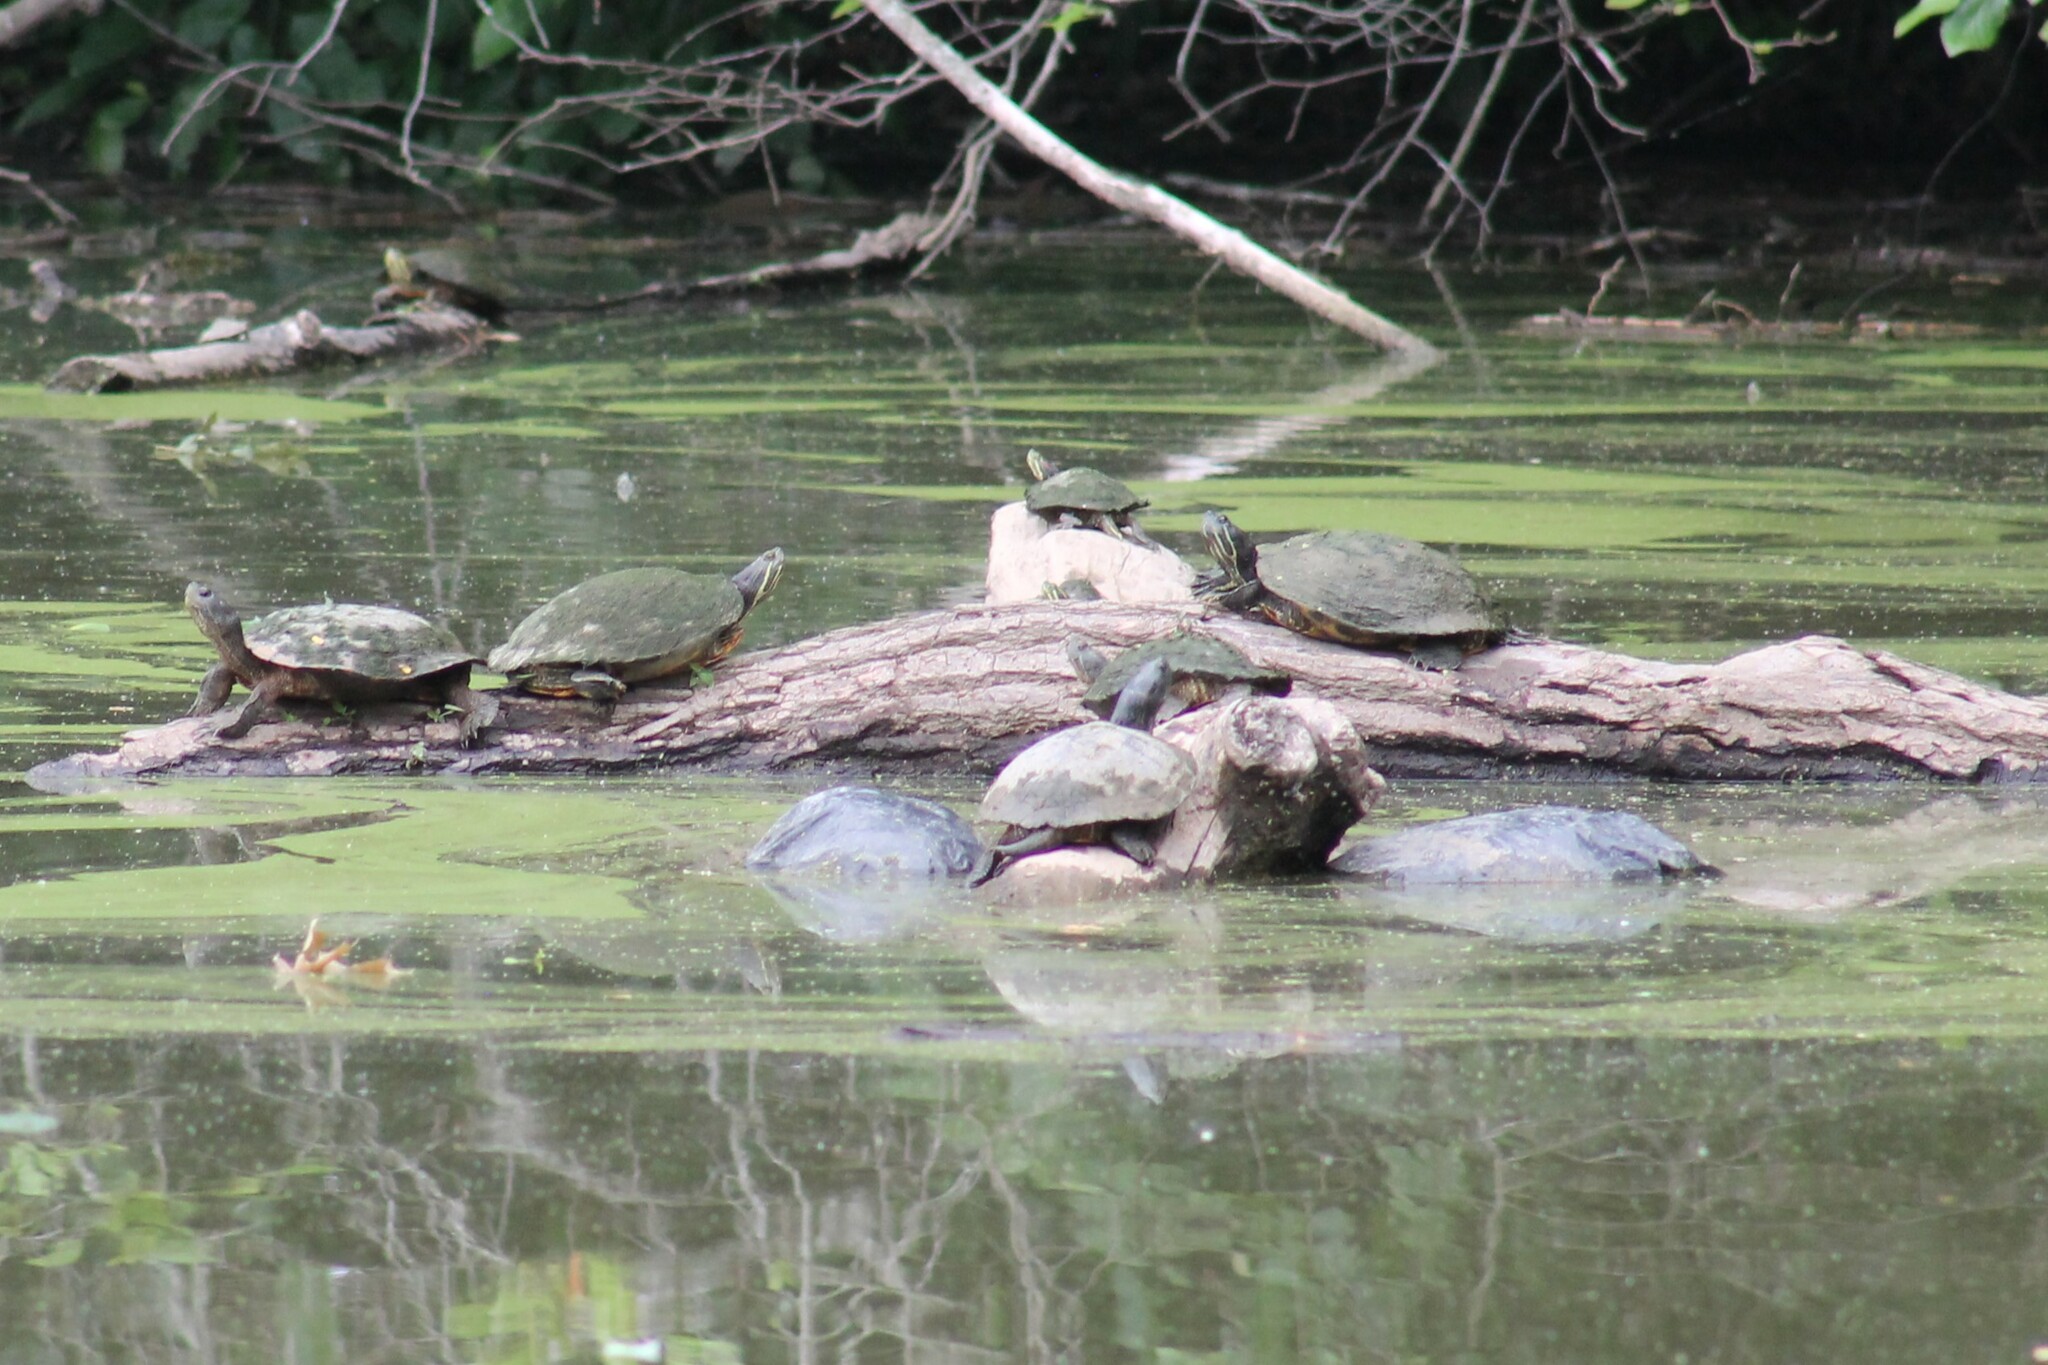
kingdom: Animalia
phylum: Chordata
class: Testudines
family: Emydidae
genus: Trachemys
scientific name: Trachemys scripta
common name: Slider
